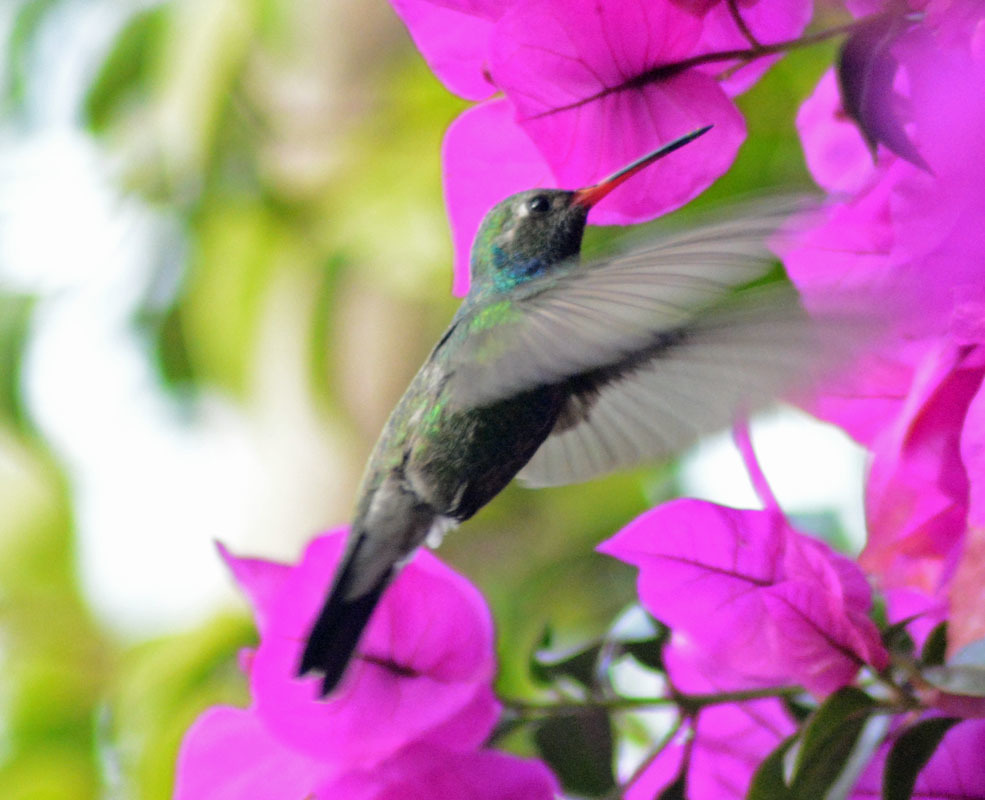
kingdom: Animalia
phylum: Chordata
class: Aves
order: Apodiformes
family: Trochilidae
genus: Cynanthus
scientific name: Cynanthus latirostris
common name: Broad-billed hummingbird
